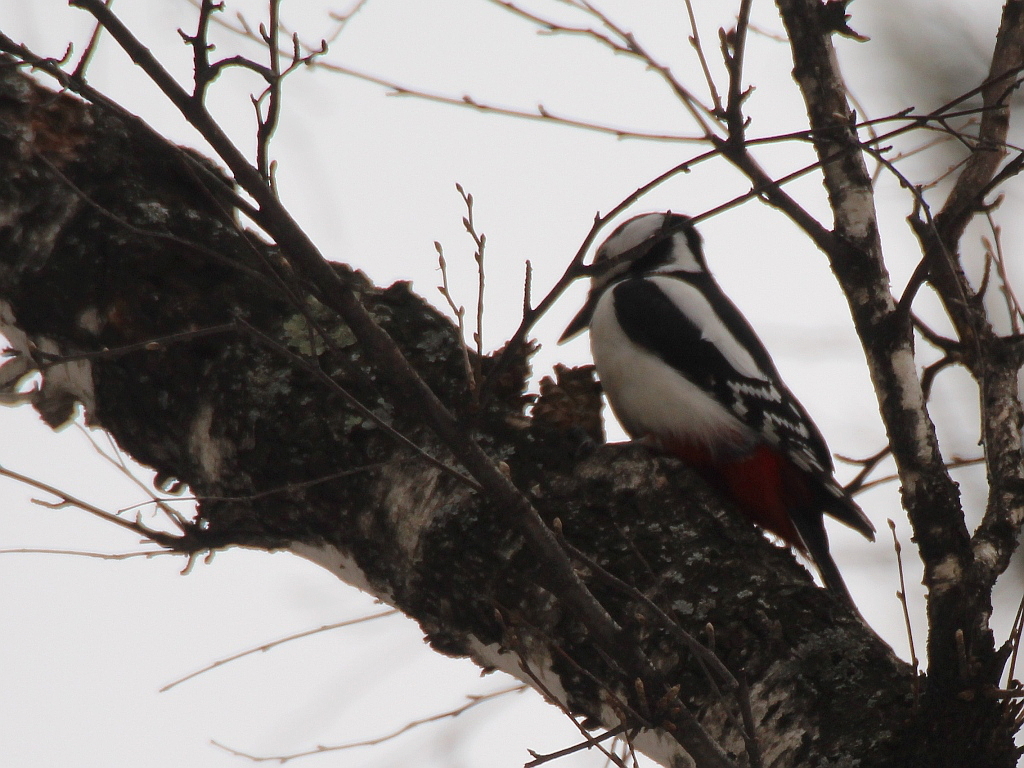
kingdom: Animalia
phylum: Chordata
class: Aves
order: Piciformes
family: Picidae
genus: Dendrocopos
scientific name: Dendrocopos major
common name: Great spotted woodpecker
